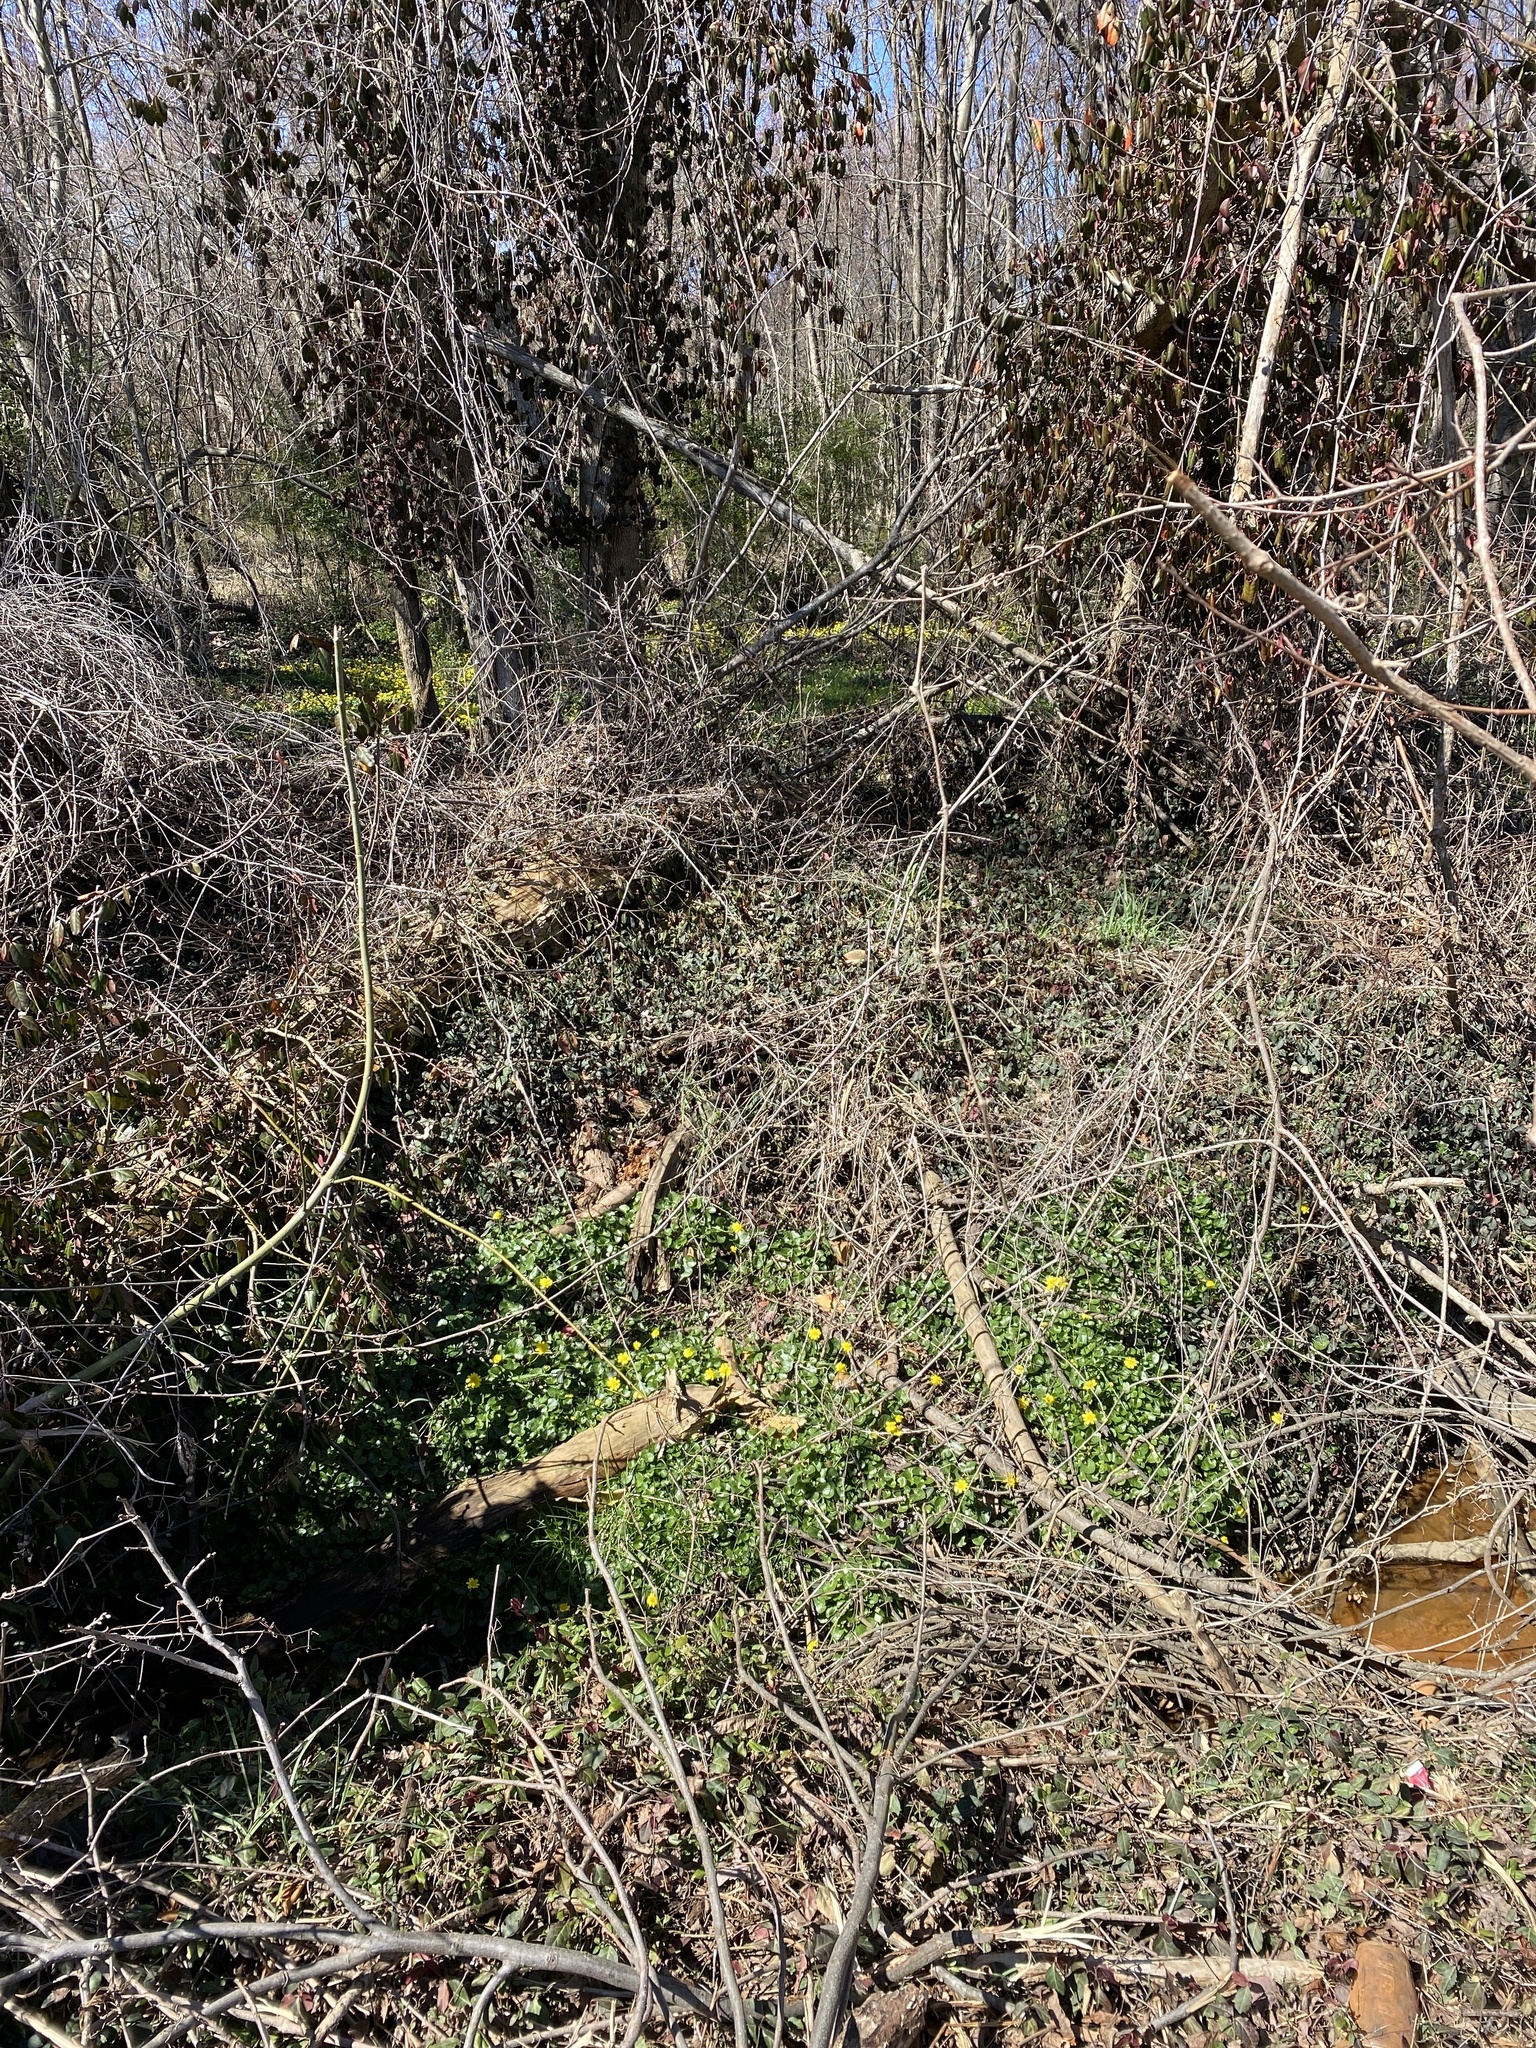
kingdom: Plantae
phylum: Tracheophyta
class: Magnoliopsida
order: Ranunculales
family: Ranunculaceae
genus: Ficaria
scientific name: Ficaria verna
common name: Lesser celandine
